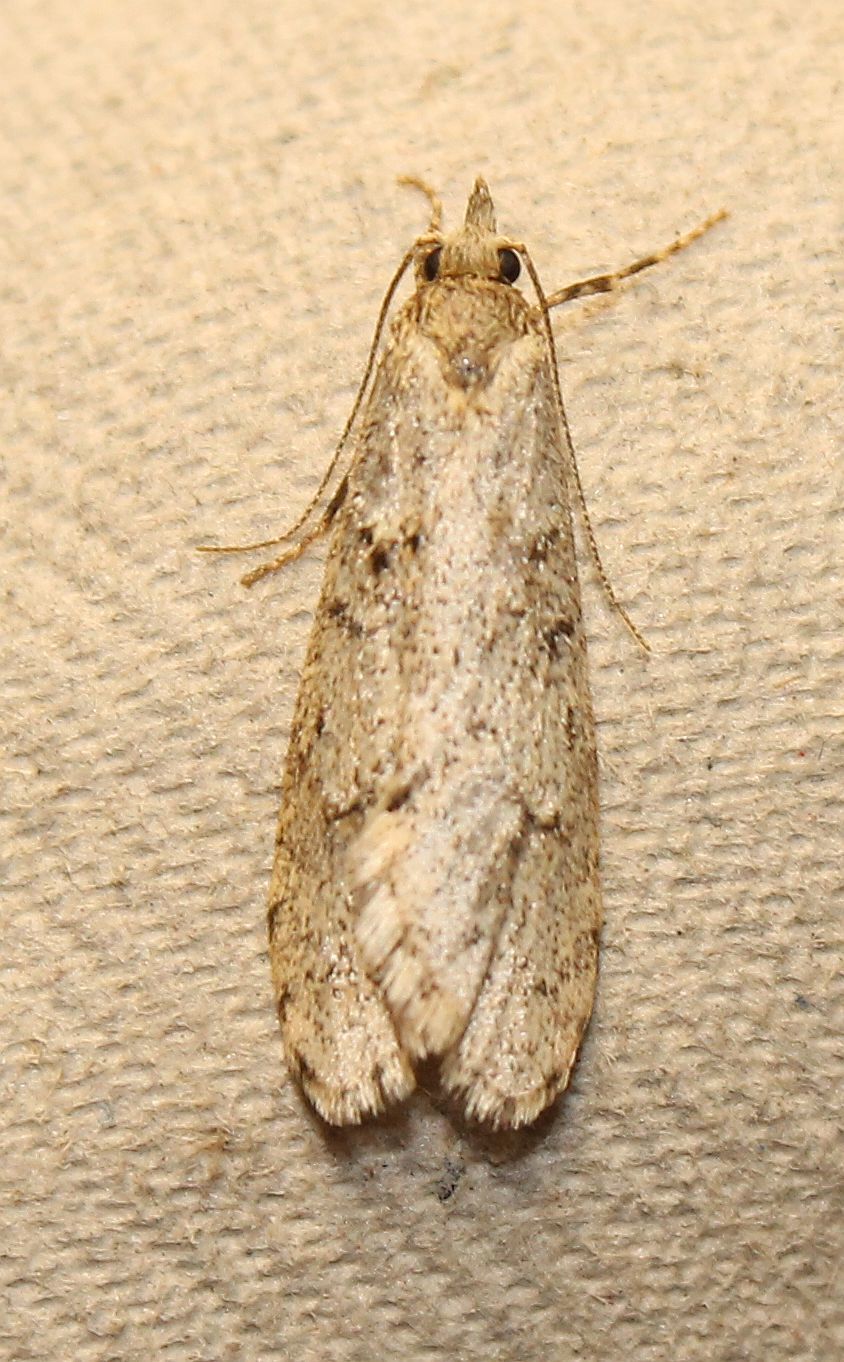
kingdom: Animalia
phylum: Arthropoda
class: Insecta
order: Lepidoptera
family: Lypusidae
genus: Diurnea
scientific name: Diurnea fagella
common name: March tubic
